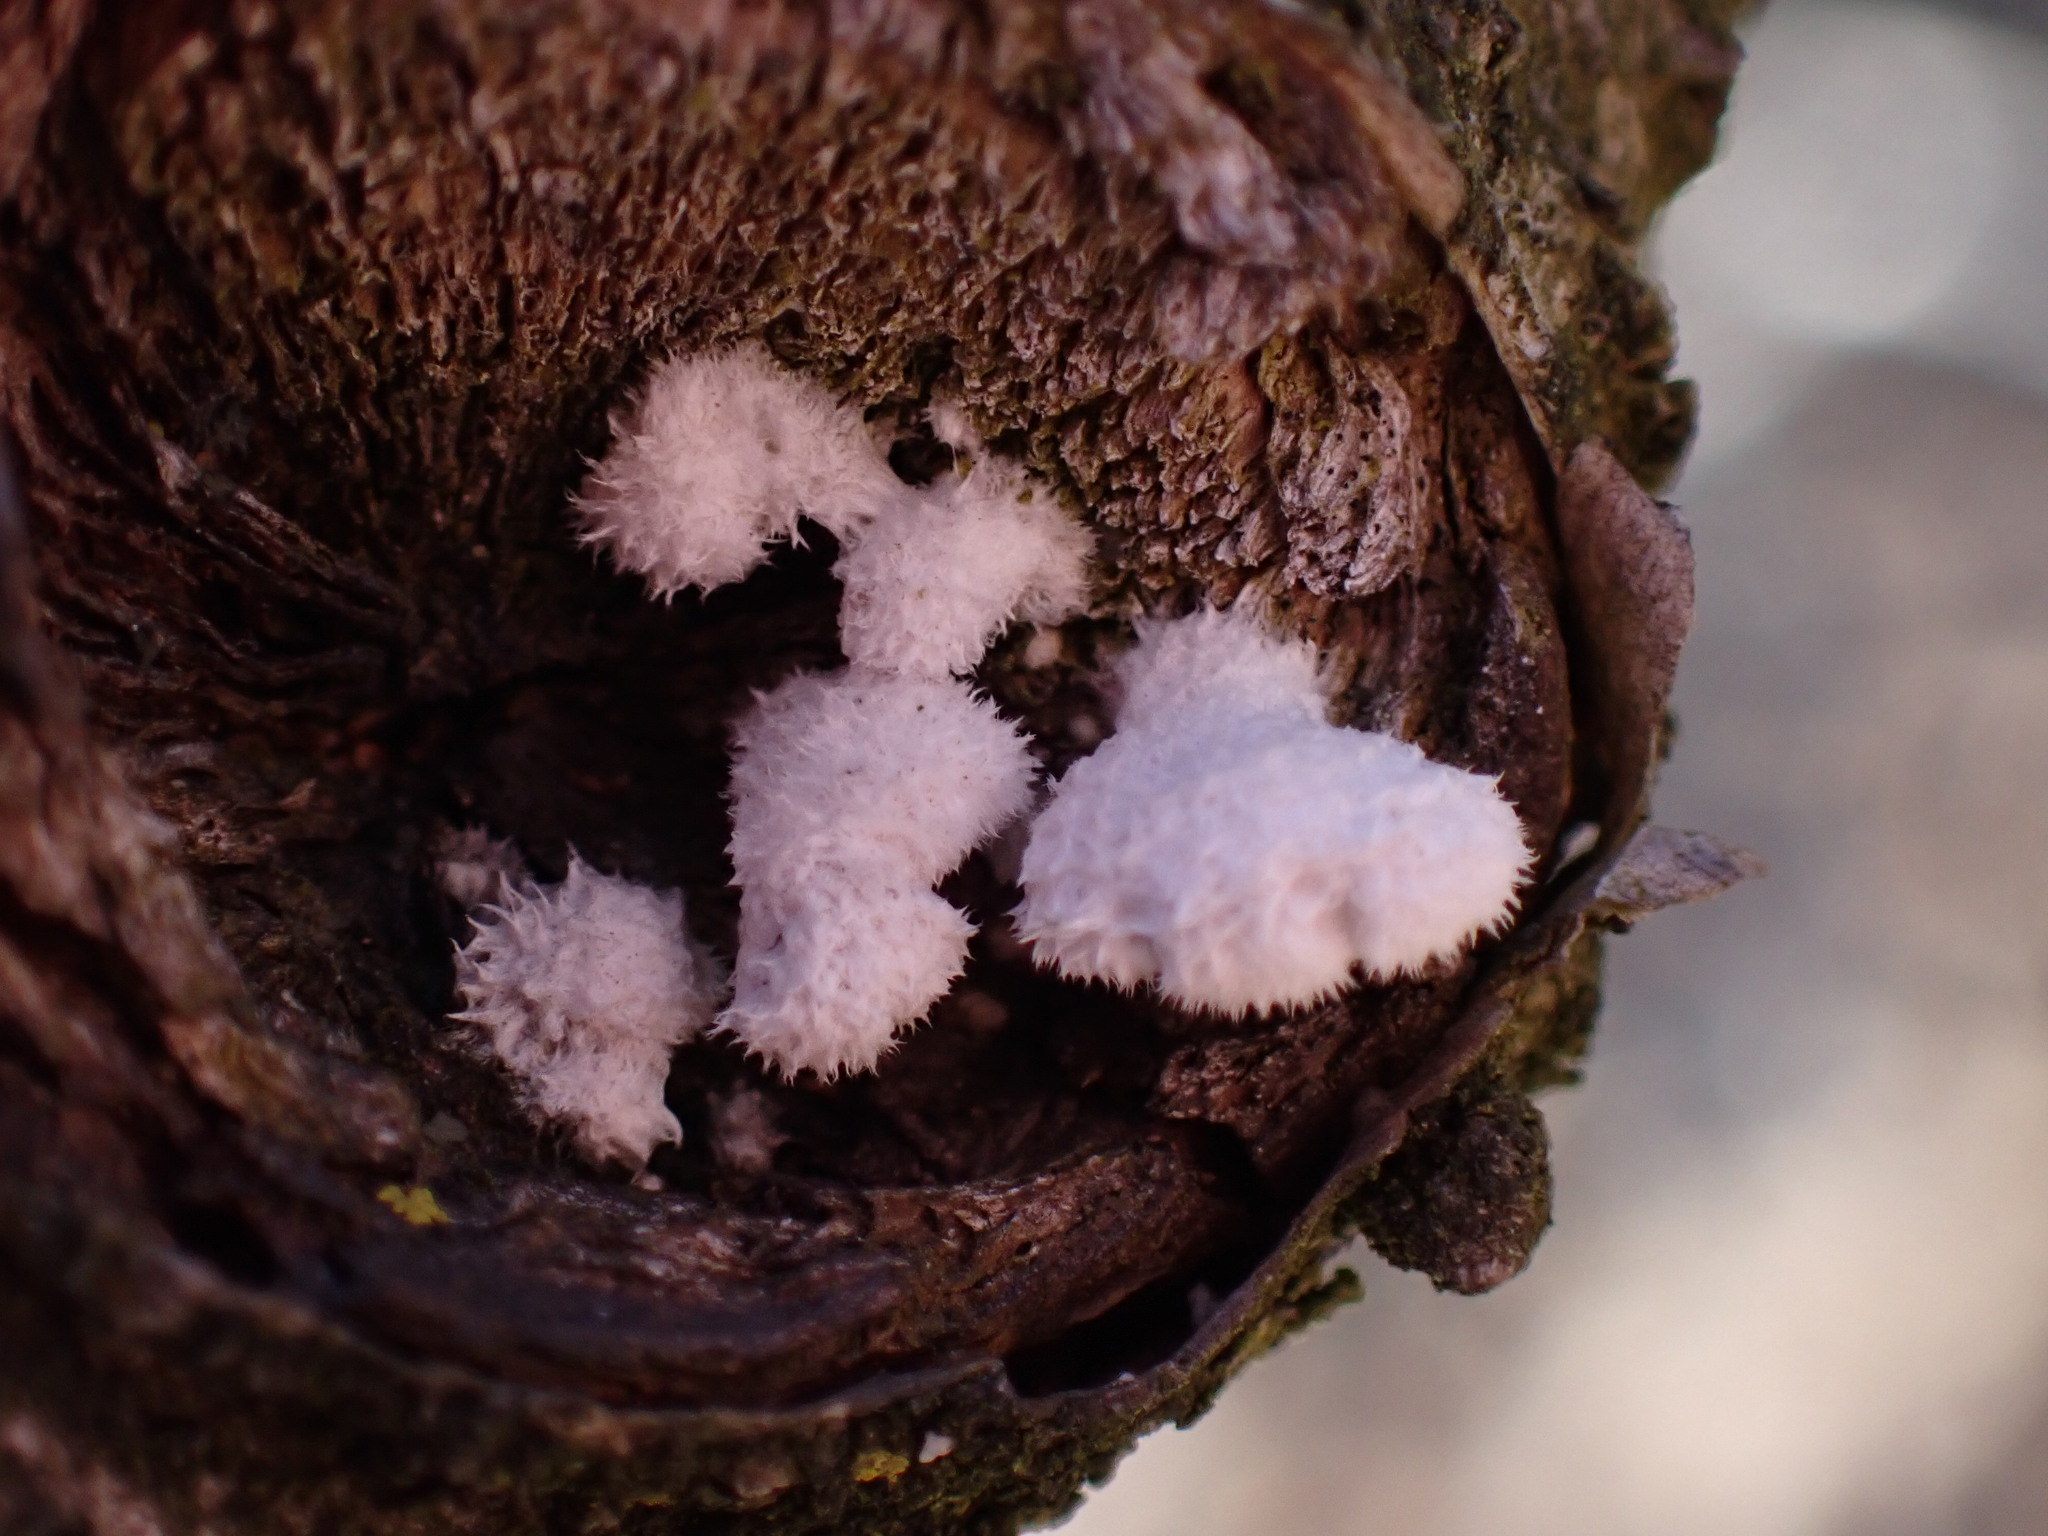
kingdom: Fungi
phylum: Basidiomycota
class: Agaricomycetes
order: Agaricales
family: Schizophyllaceae
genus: Schizophyllum
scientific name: Schizophyllum commune
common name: Common porecrust
